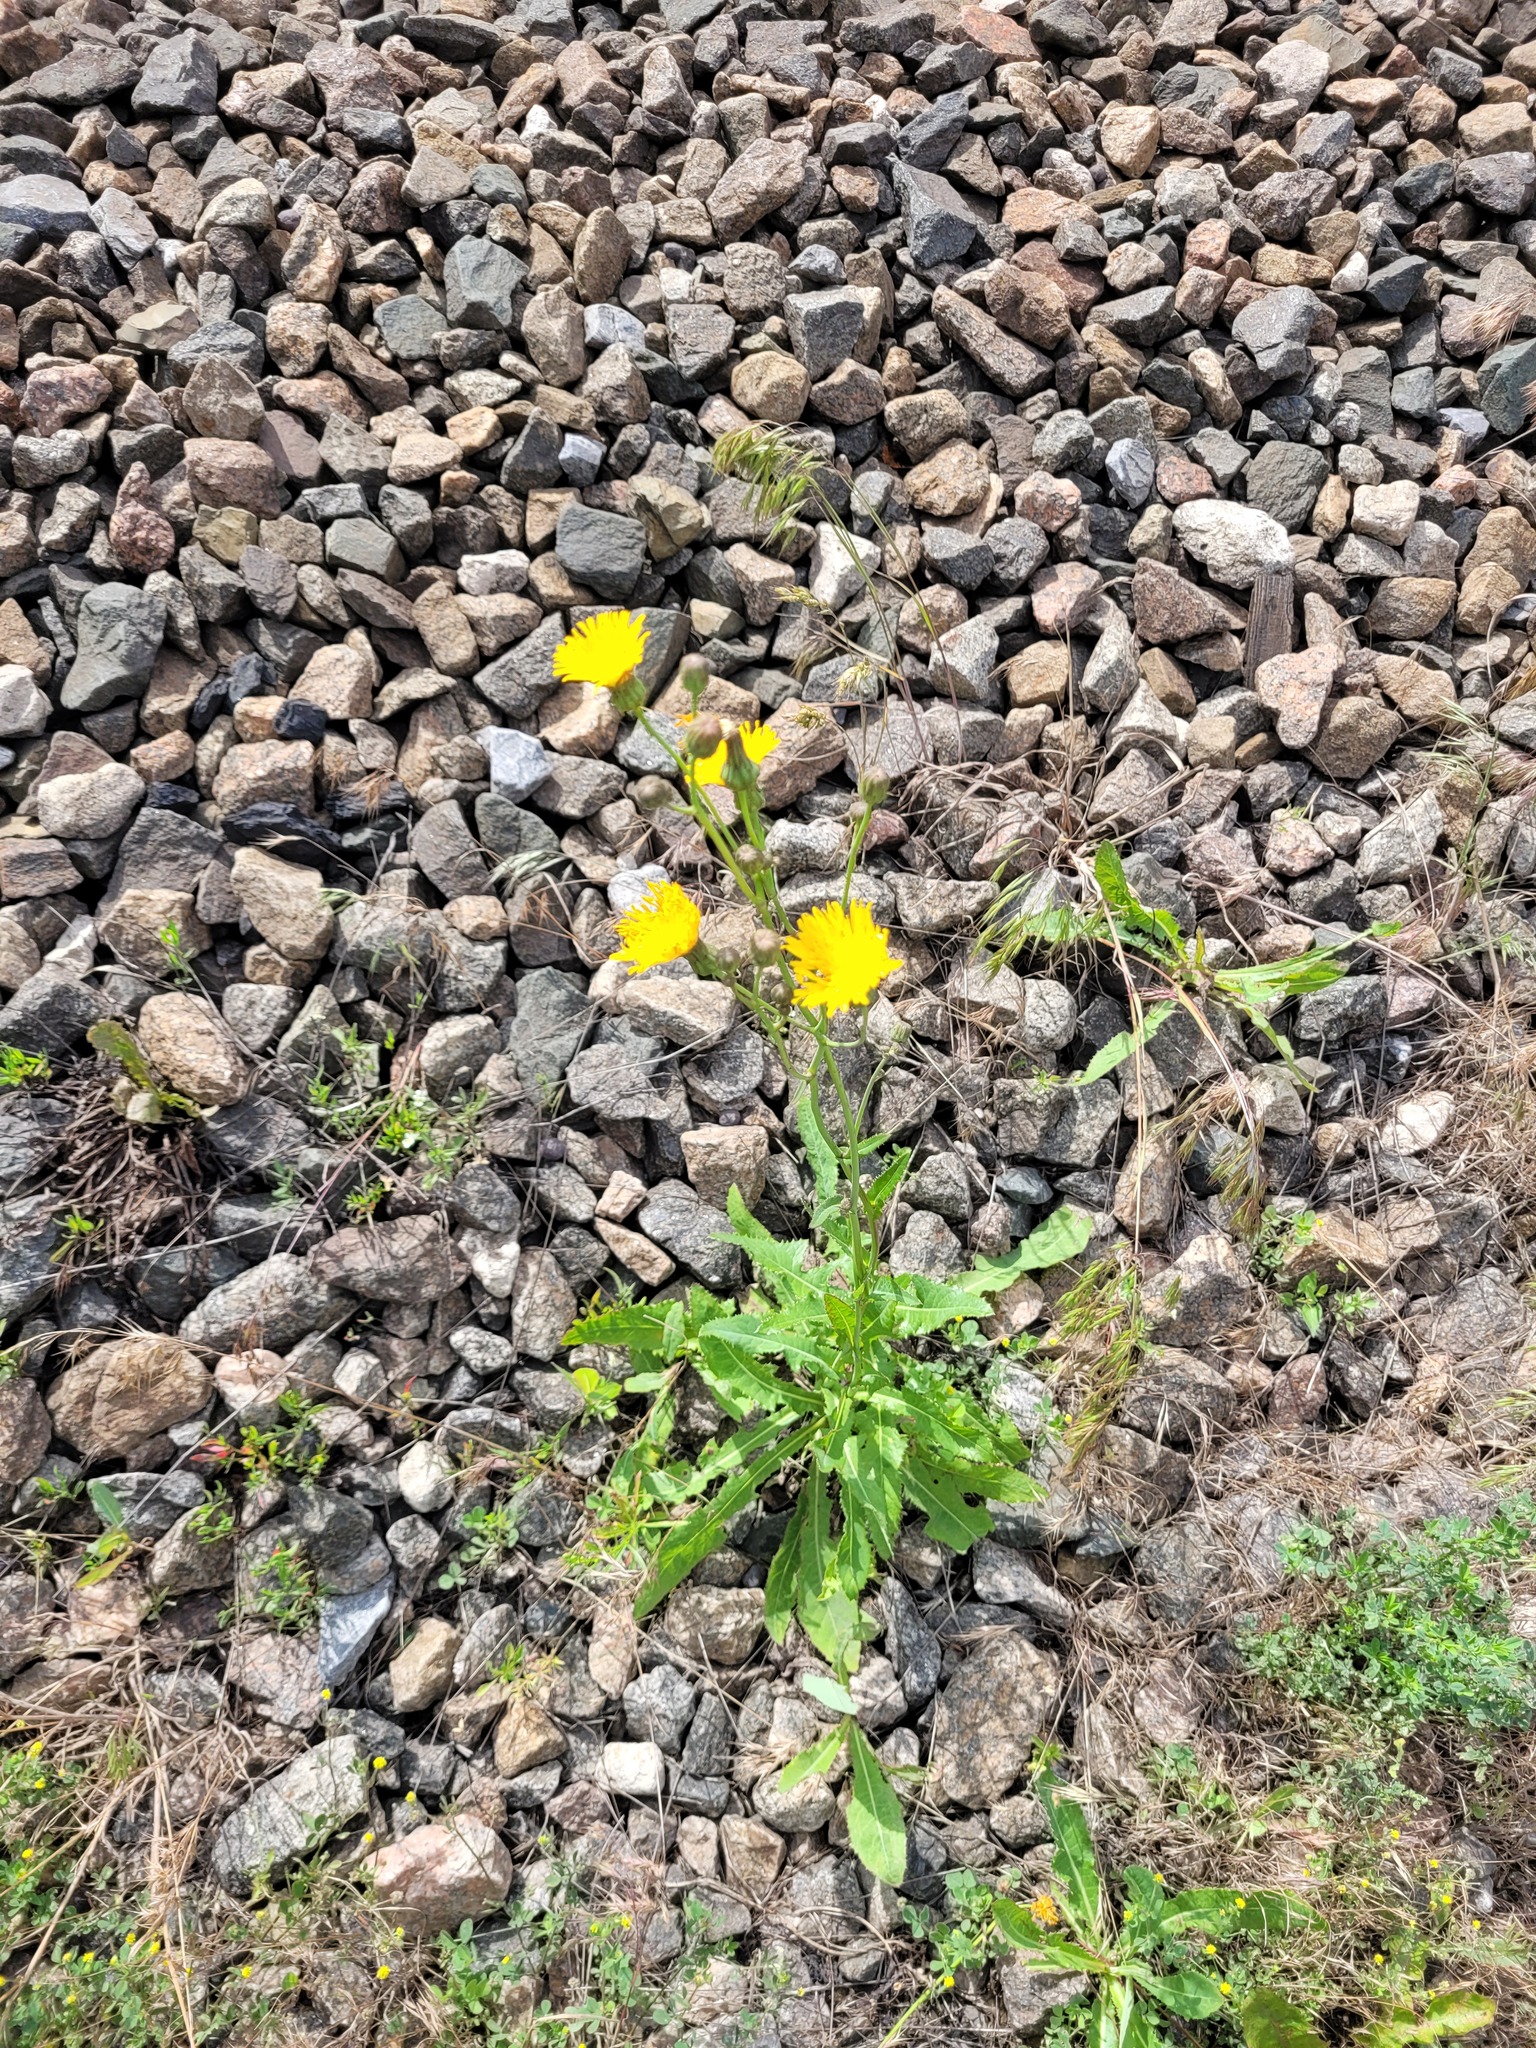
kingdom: Plantae
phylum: Tracheophyta
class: Magnoliopsida
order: Asterales
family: Asteraceae
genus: Sonchus
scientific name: Sonchus arvensis
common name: Perennial sow-thistle
